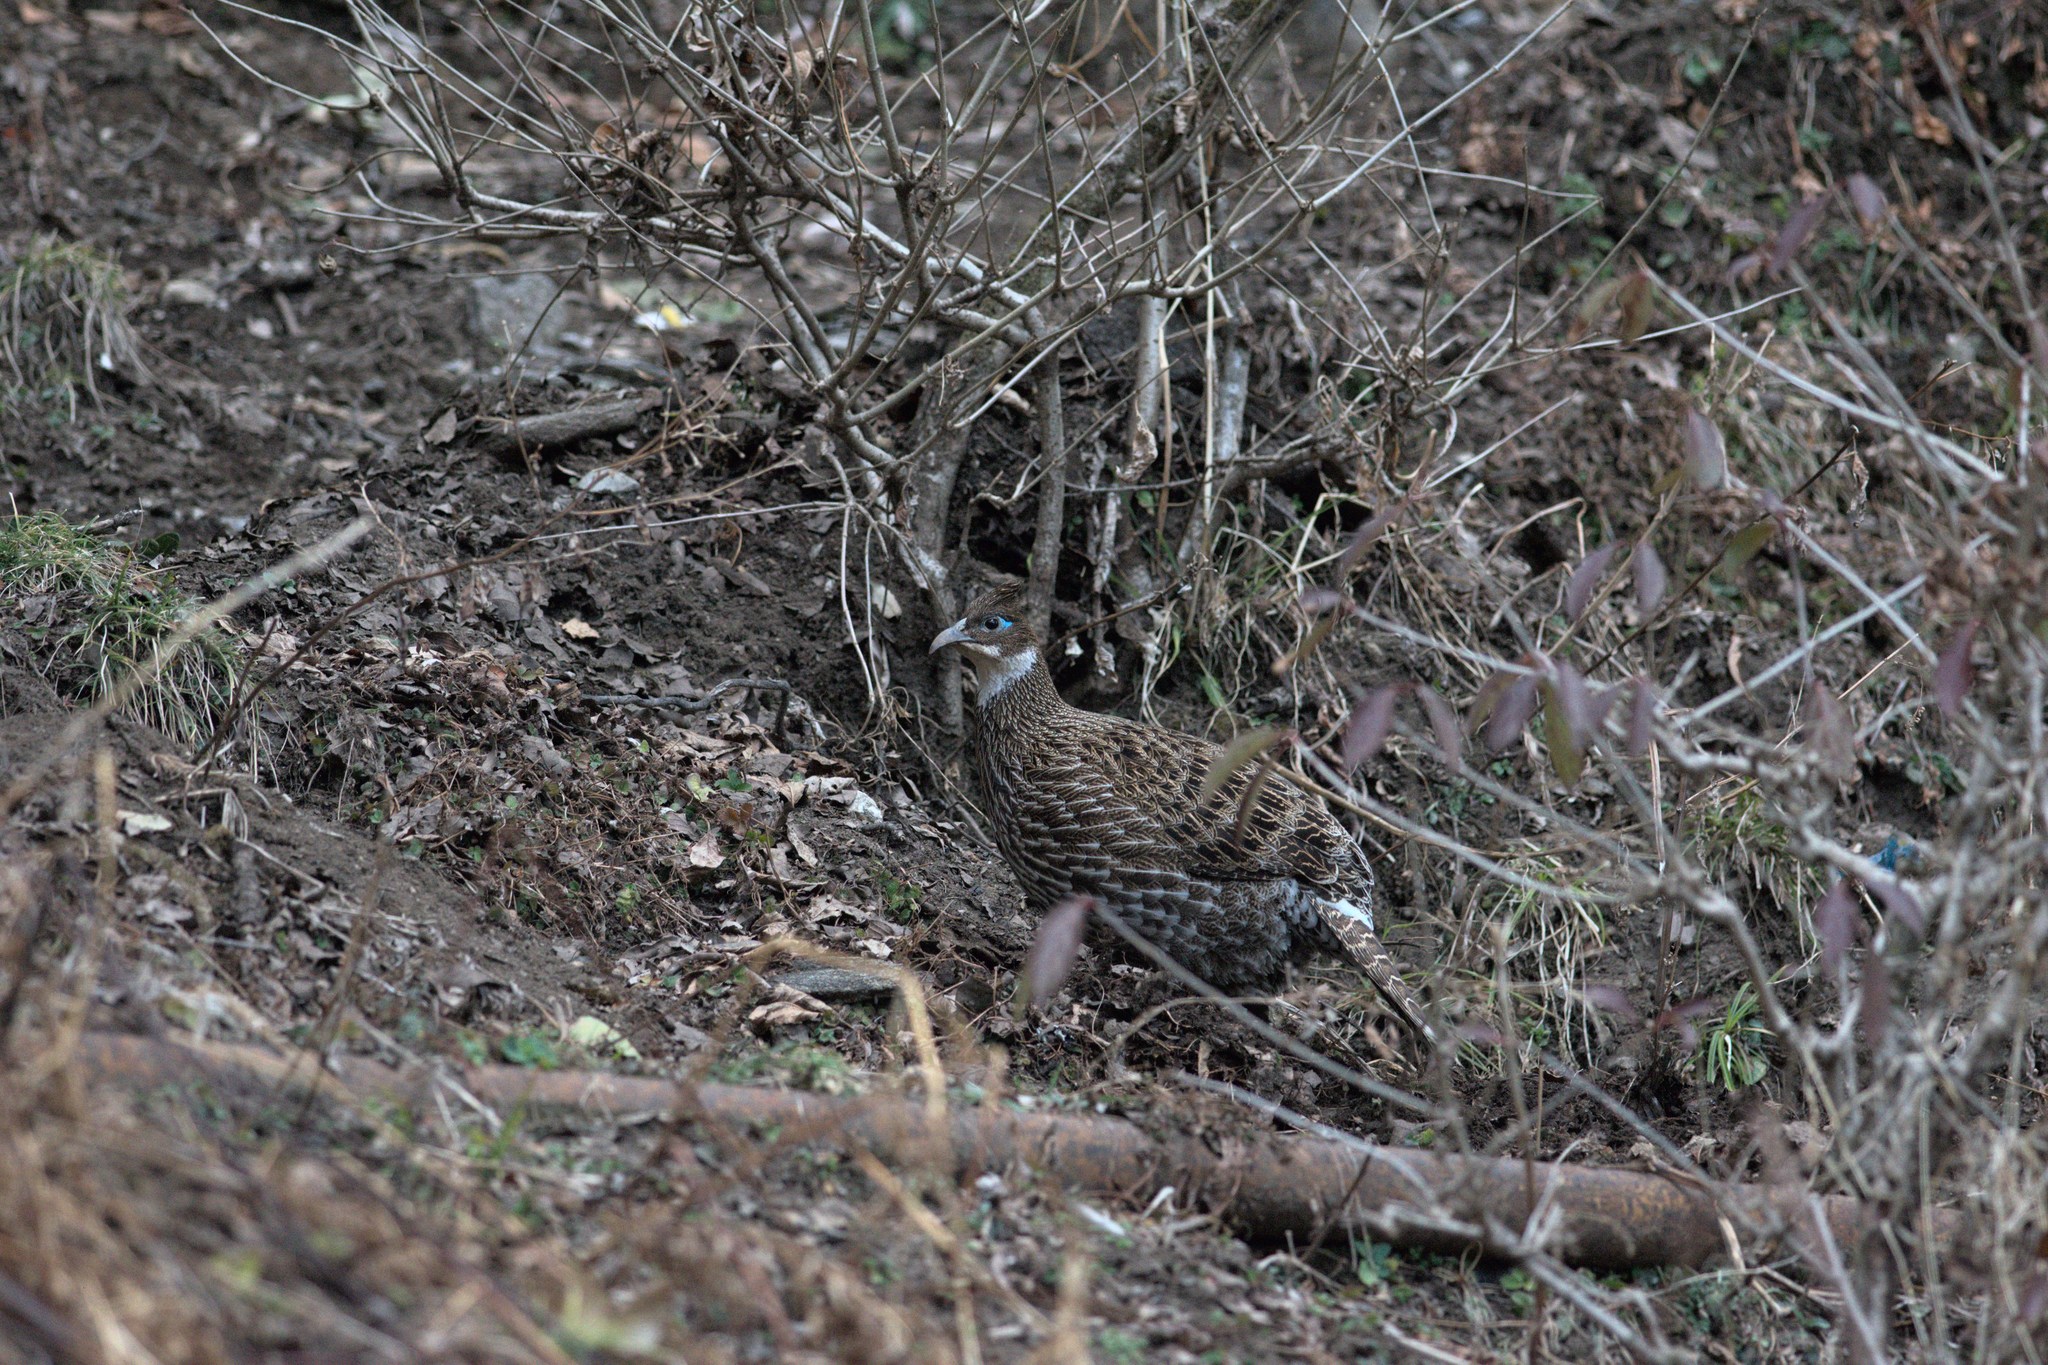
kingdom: Animalia
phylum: Chordata
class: Aves
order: Galliformes
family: Phasianidae
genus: Lophophorus
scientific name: Lophophorus impejanus
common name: Himalayan monal
